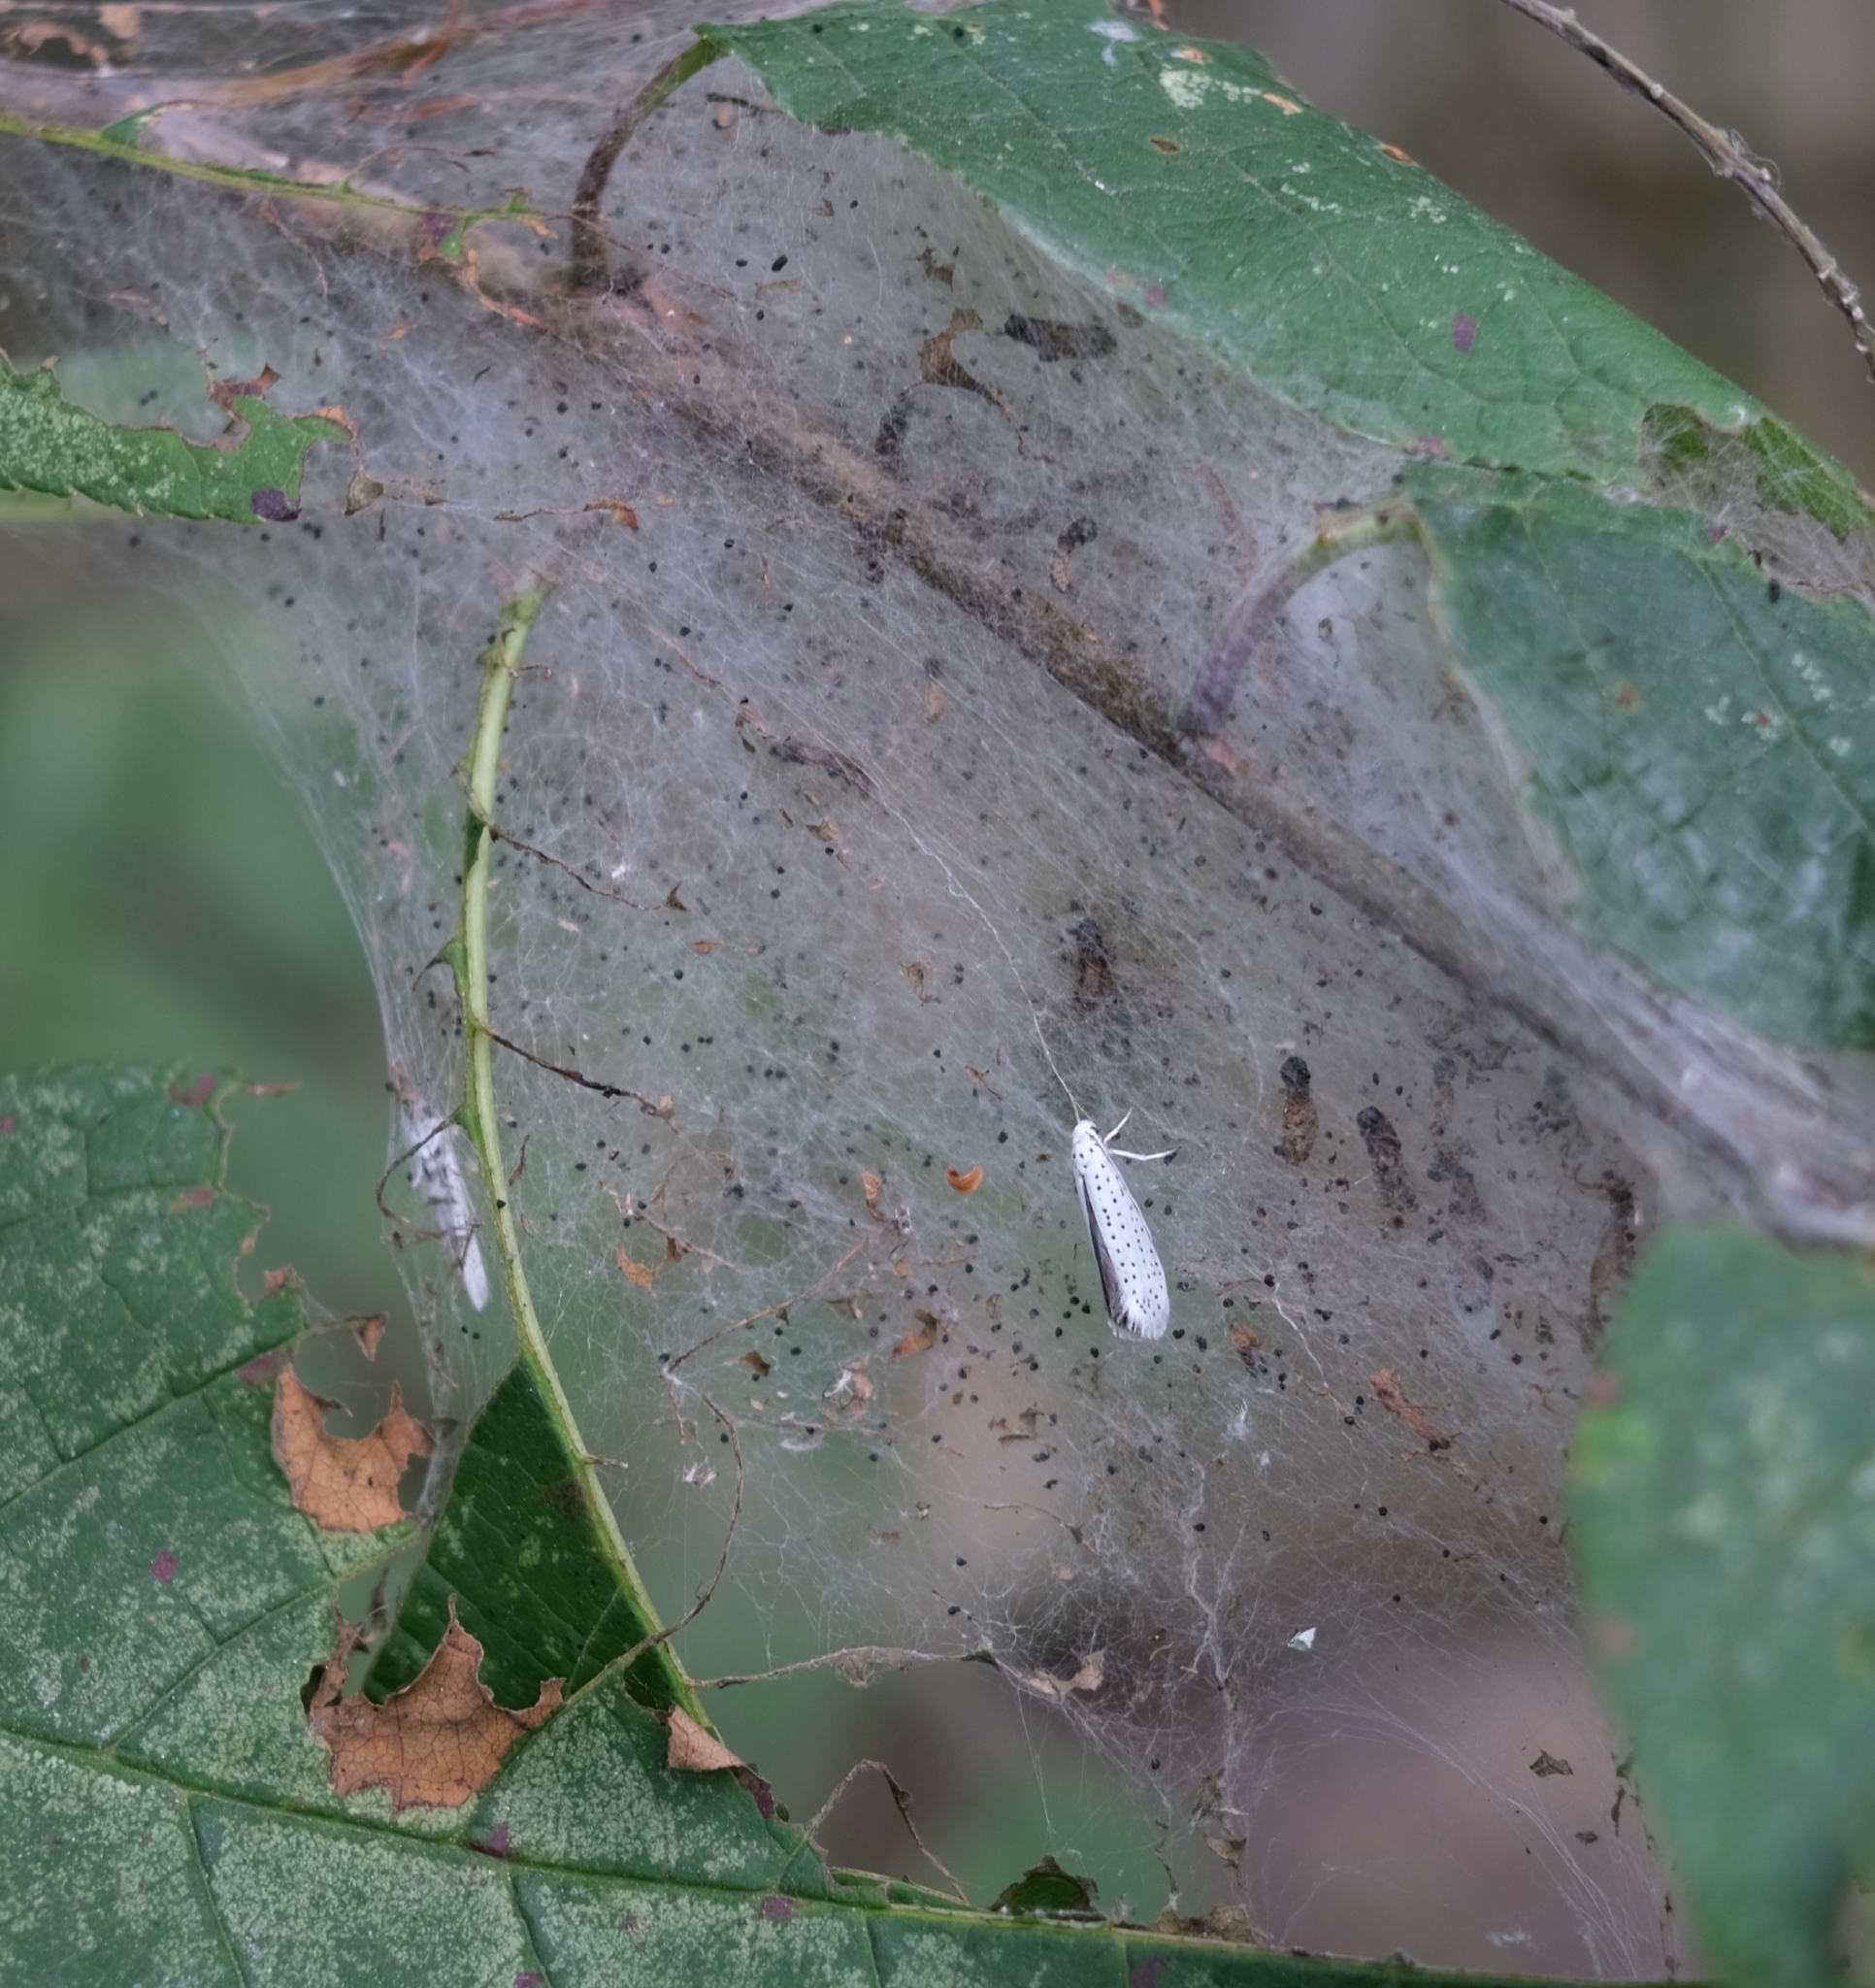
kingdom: Animalia
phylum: Arthropoda
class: Insecta
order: Lepidoptera
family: Yponomeutidae
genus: Yponomeuta
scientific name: Yponomeuta evonymella
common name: Bird-cherry ermine
